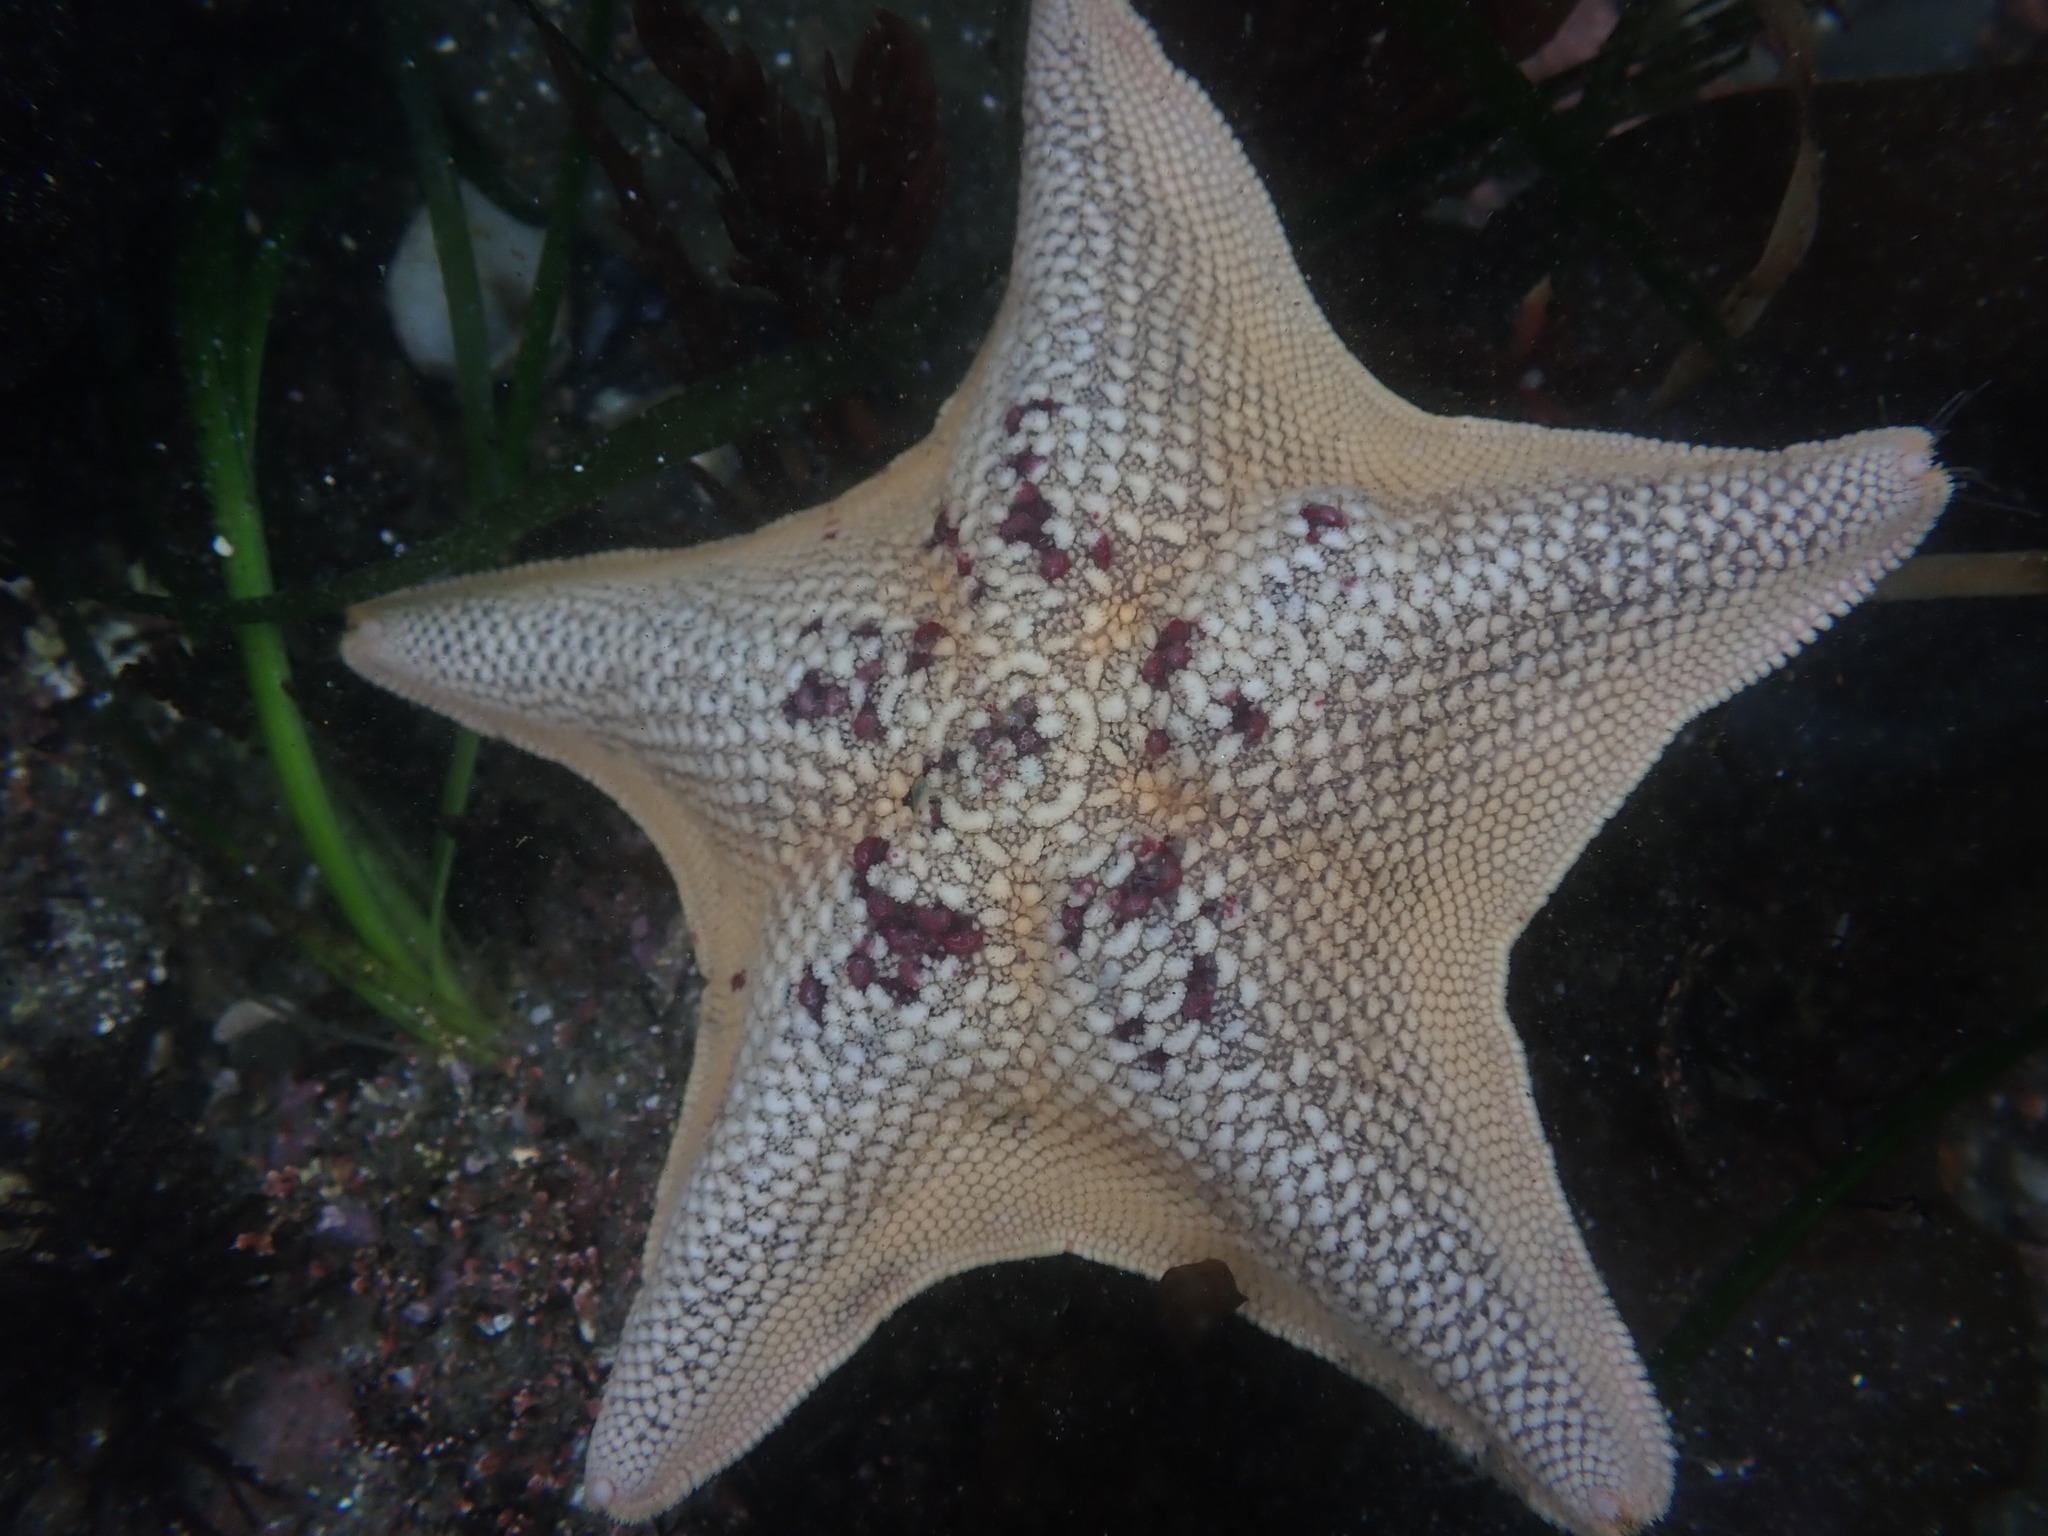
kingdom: Animalia
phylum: Echinodermata
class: Asteroidea
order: Valvatida
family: Asterinidae
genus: Patiria
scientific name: Patiria miniata
